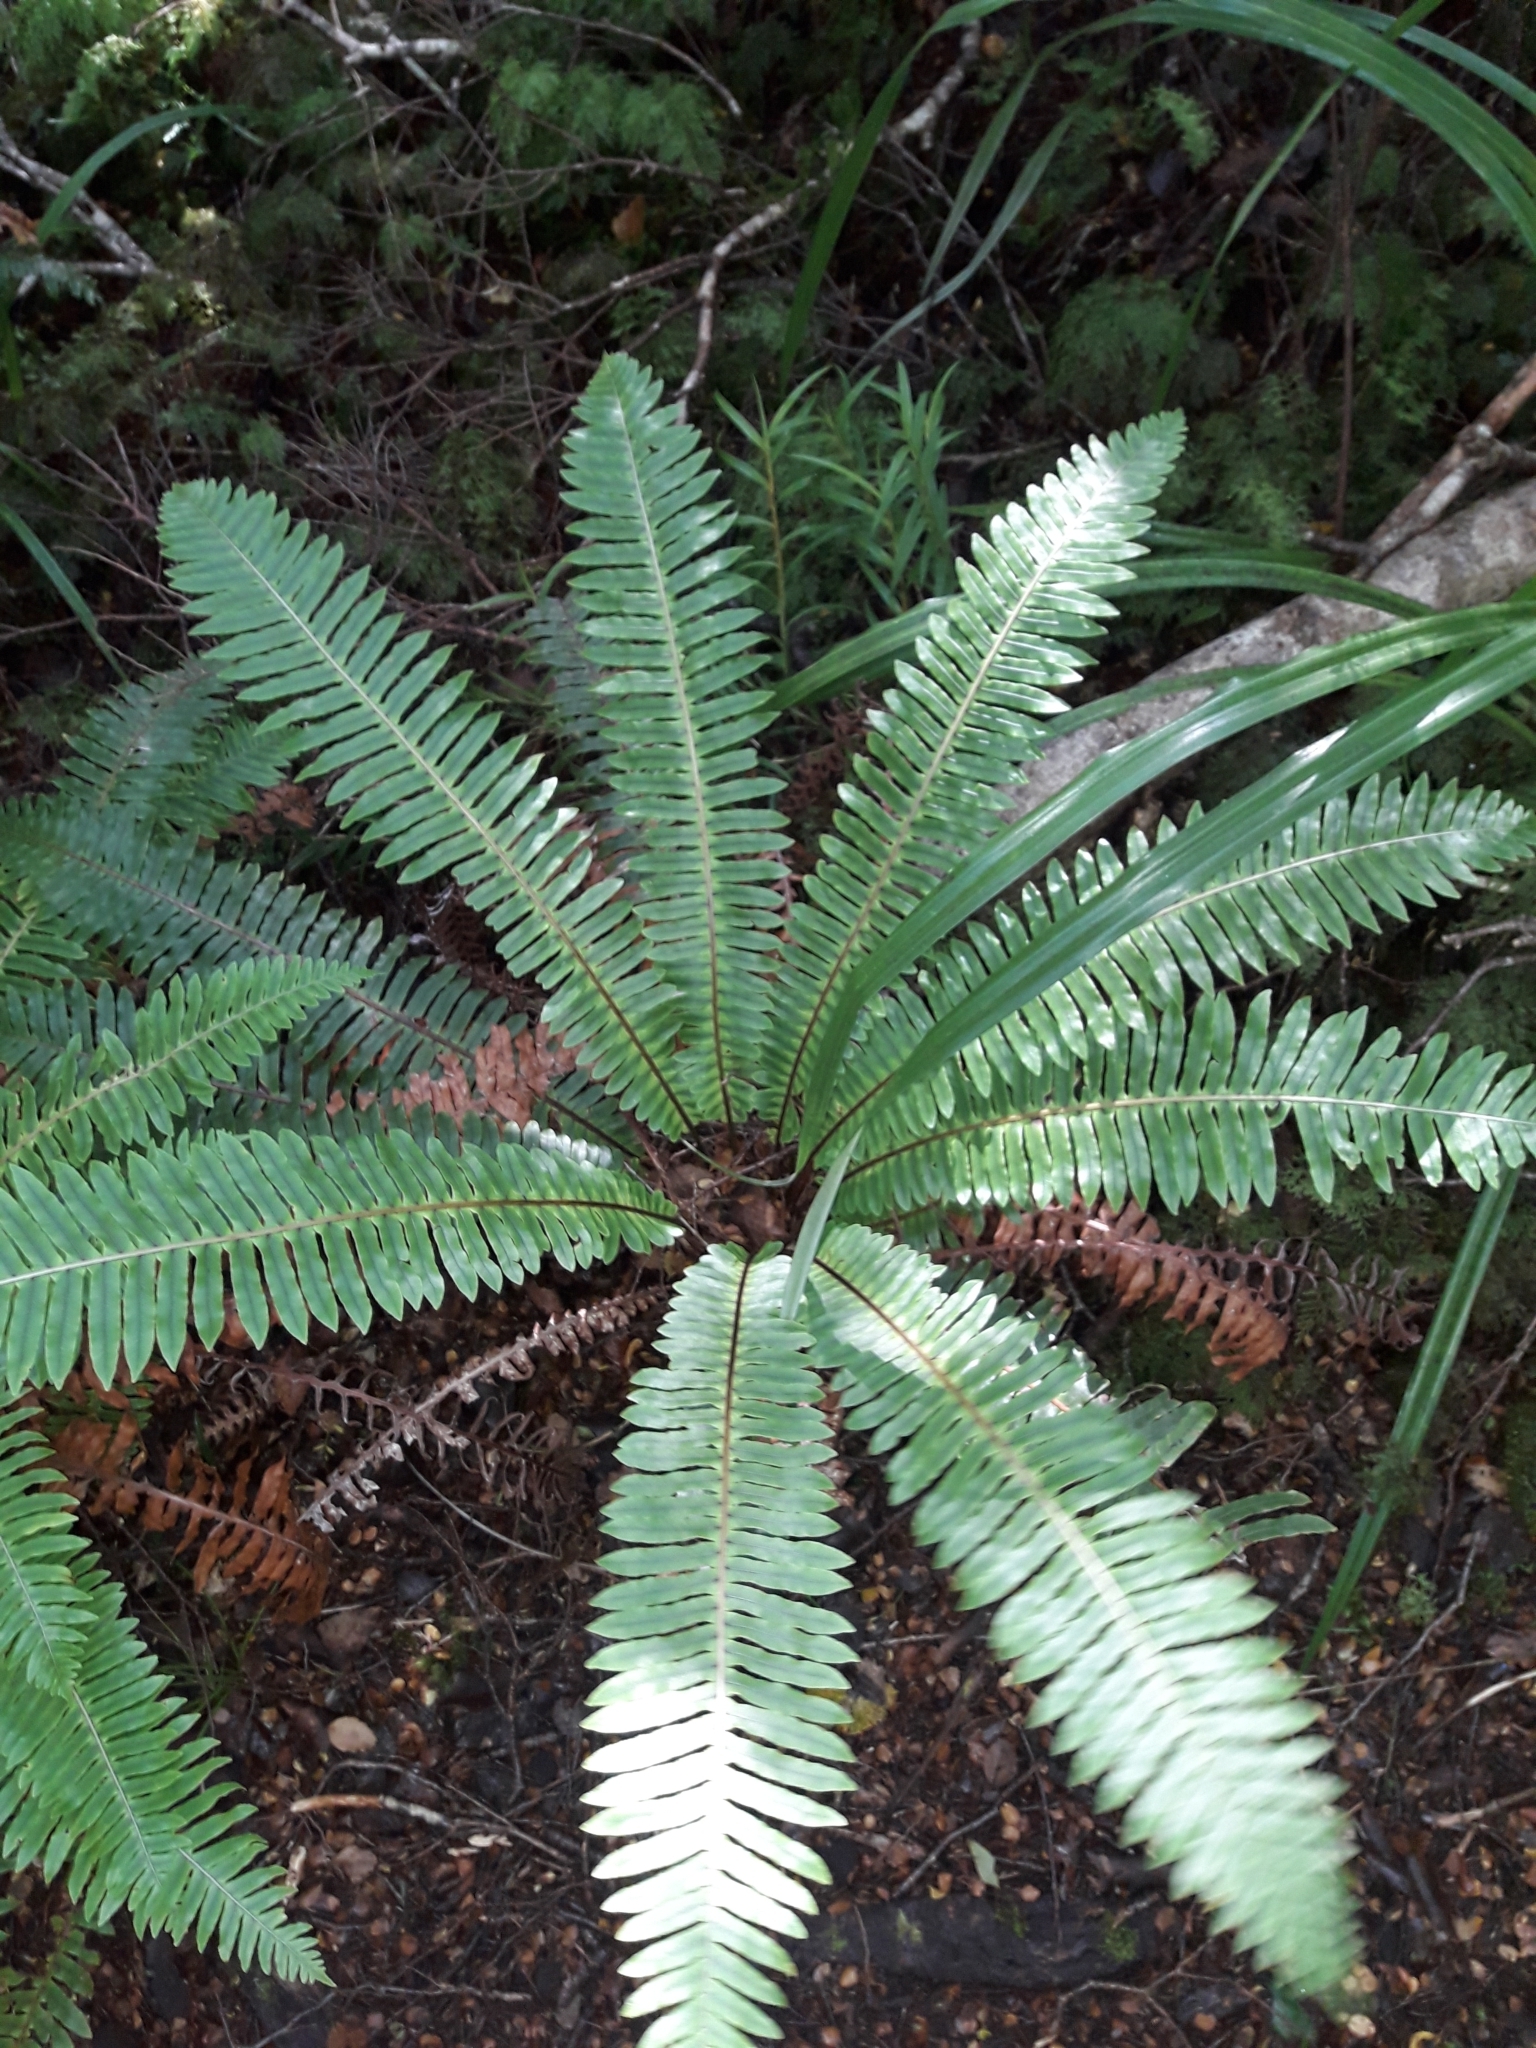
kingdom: Plantae
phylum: Tracheophyta
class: Polypodiopsida
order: Polypodiales
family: Blechnaceae
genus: Lomaria
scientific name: Lomaria discolor
